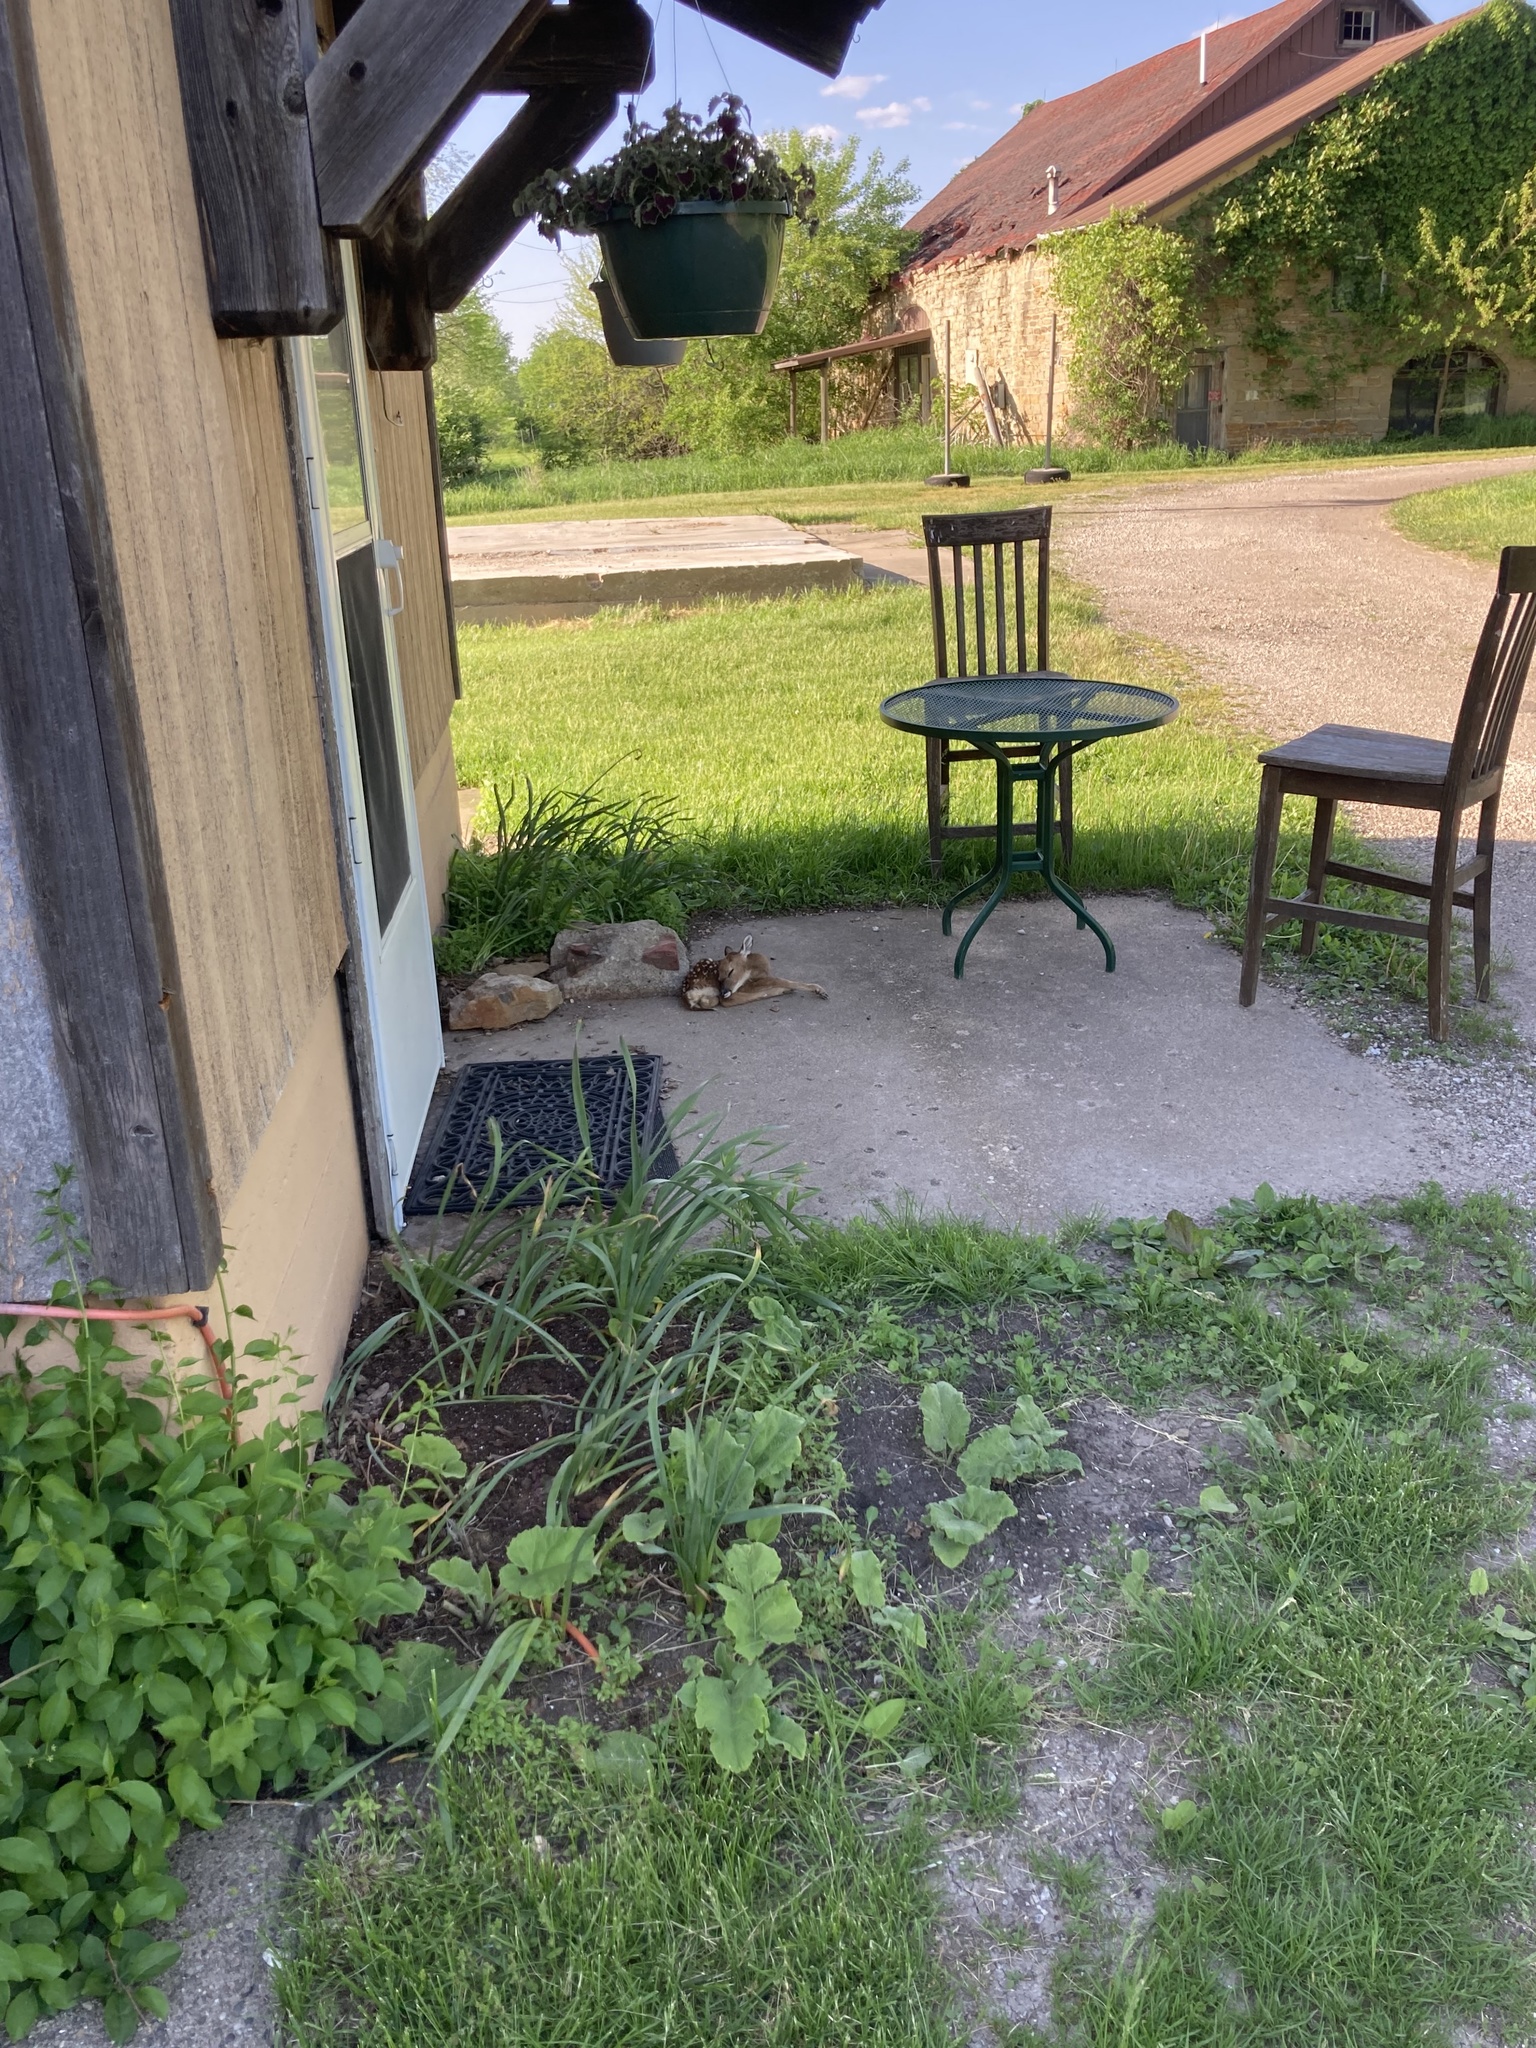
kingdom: Animalia
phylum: Chordata
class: Mammalia
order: Artiodactyla
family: Cervidae
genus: Odocoileus
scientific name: Odocoileus virginianus
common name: White-tailed deer
